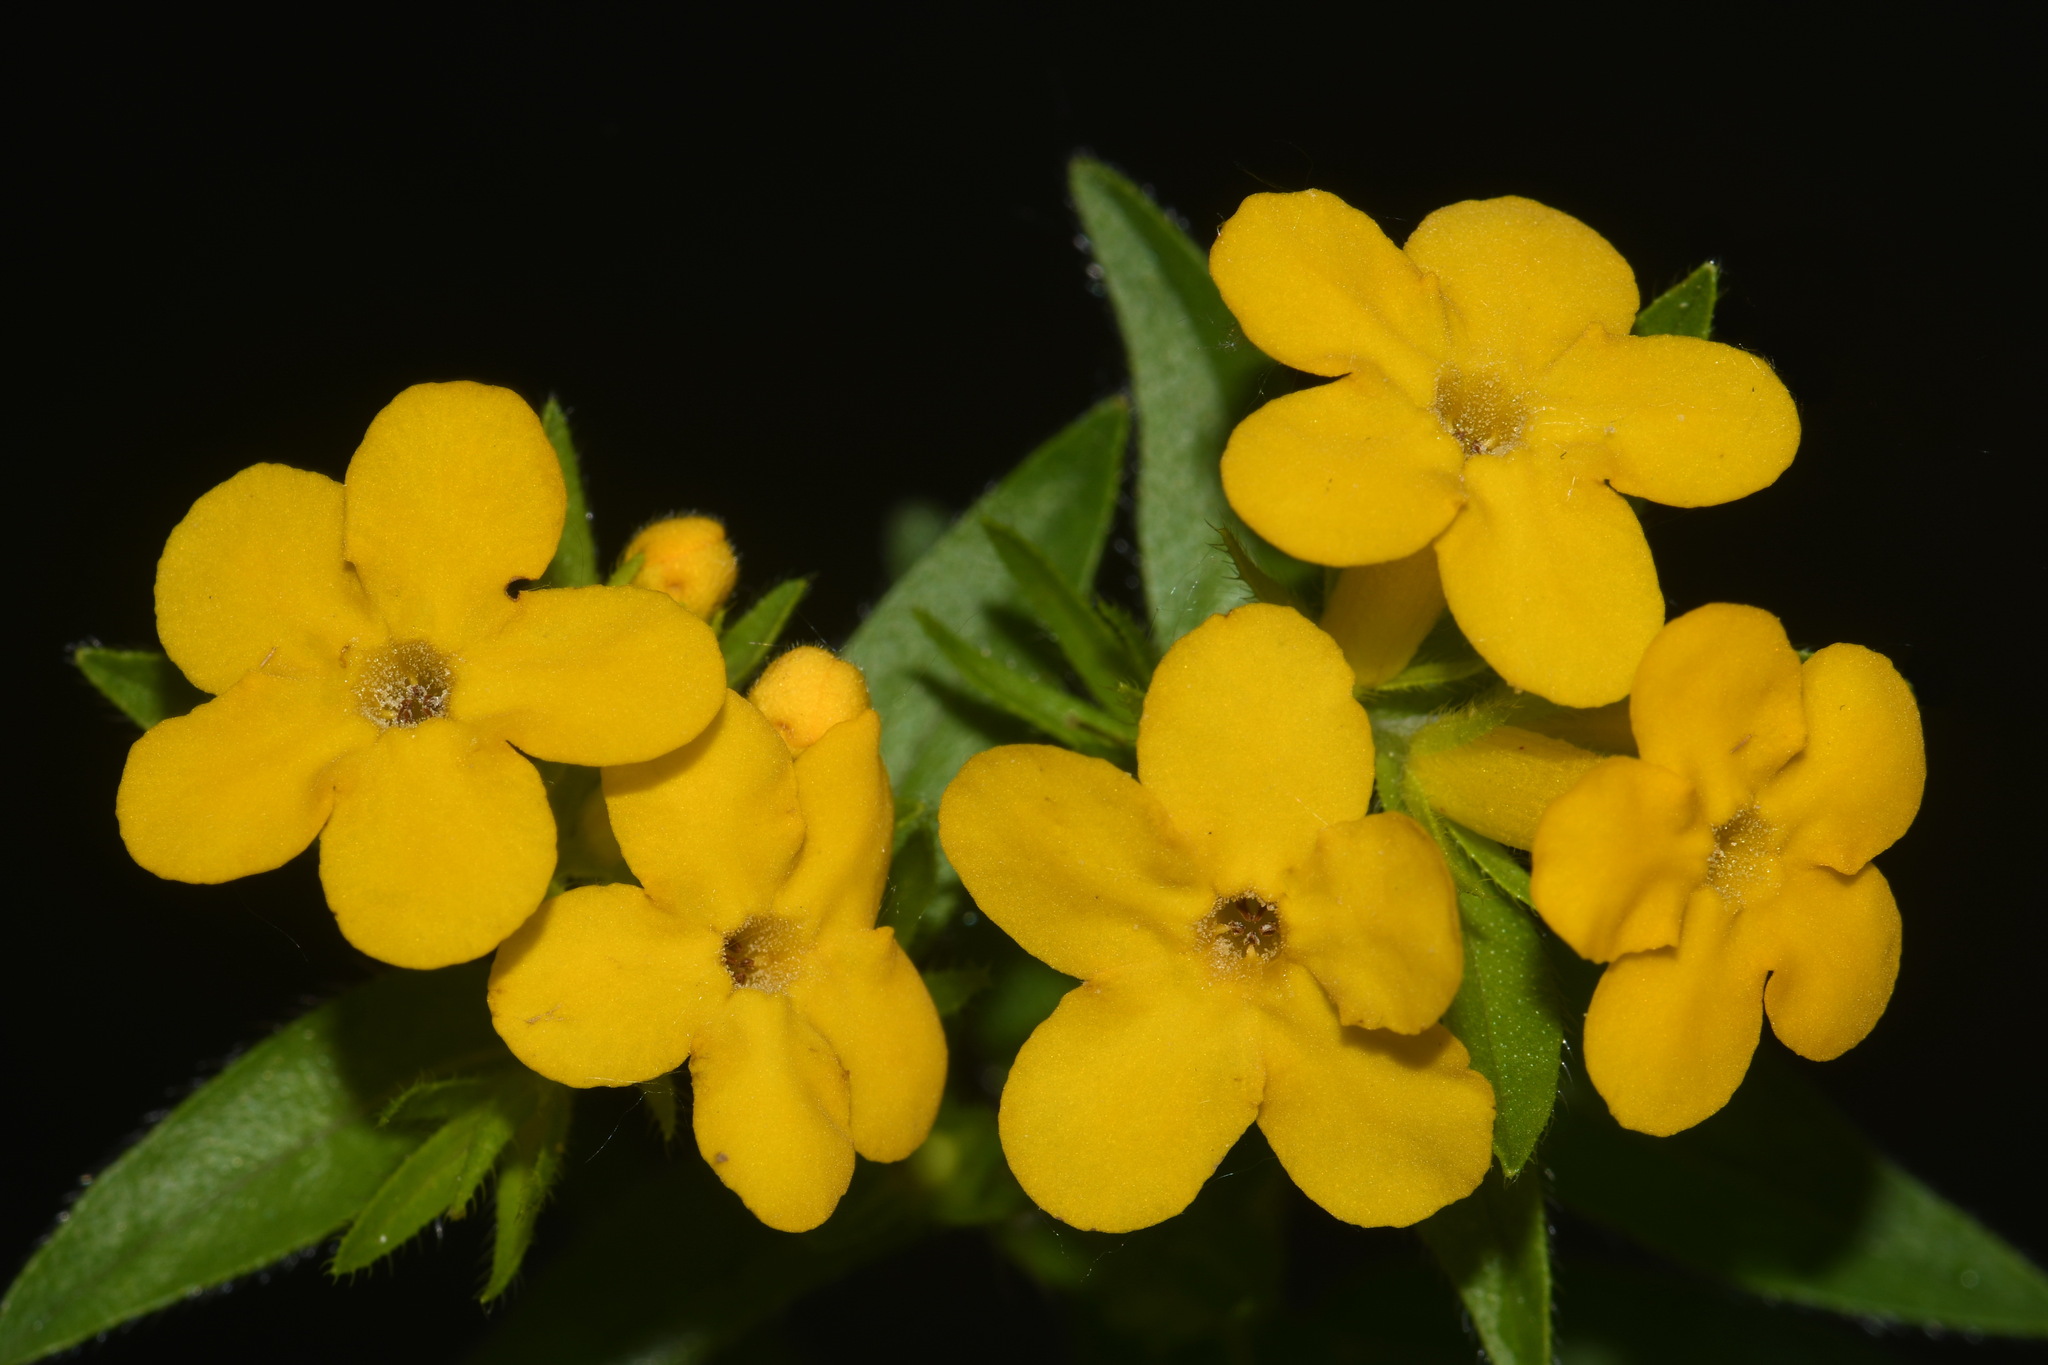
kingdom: Plantae
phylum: Tracheophyta
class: Magnoliopsida
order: Boraginales
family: Boraginaceae
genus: Lithospermum
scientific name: Lithospermum caroliniense
